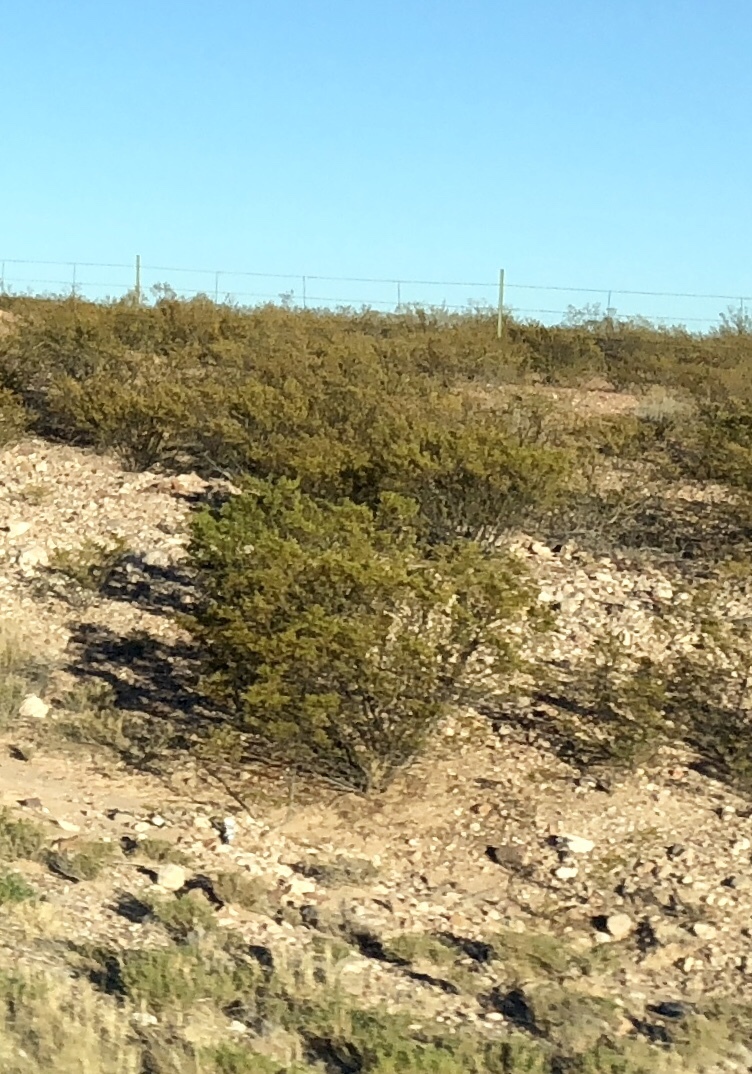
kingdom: Plantae
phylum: Tracheophyta
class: Magnoliopsida
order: Zygophyllales
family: Zygophyllaceae
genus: Larrea
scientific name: Larrea tridentata
